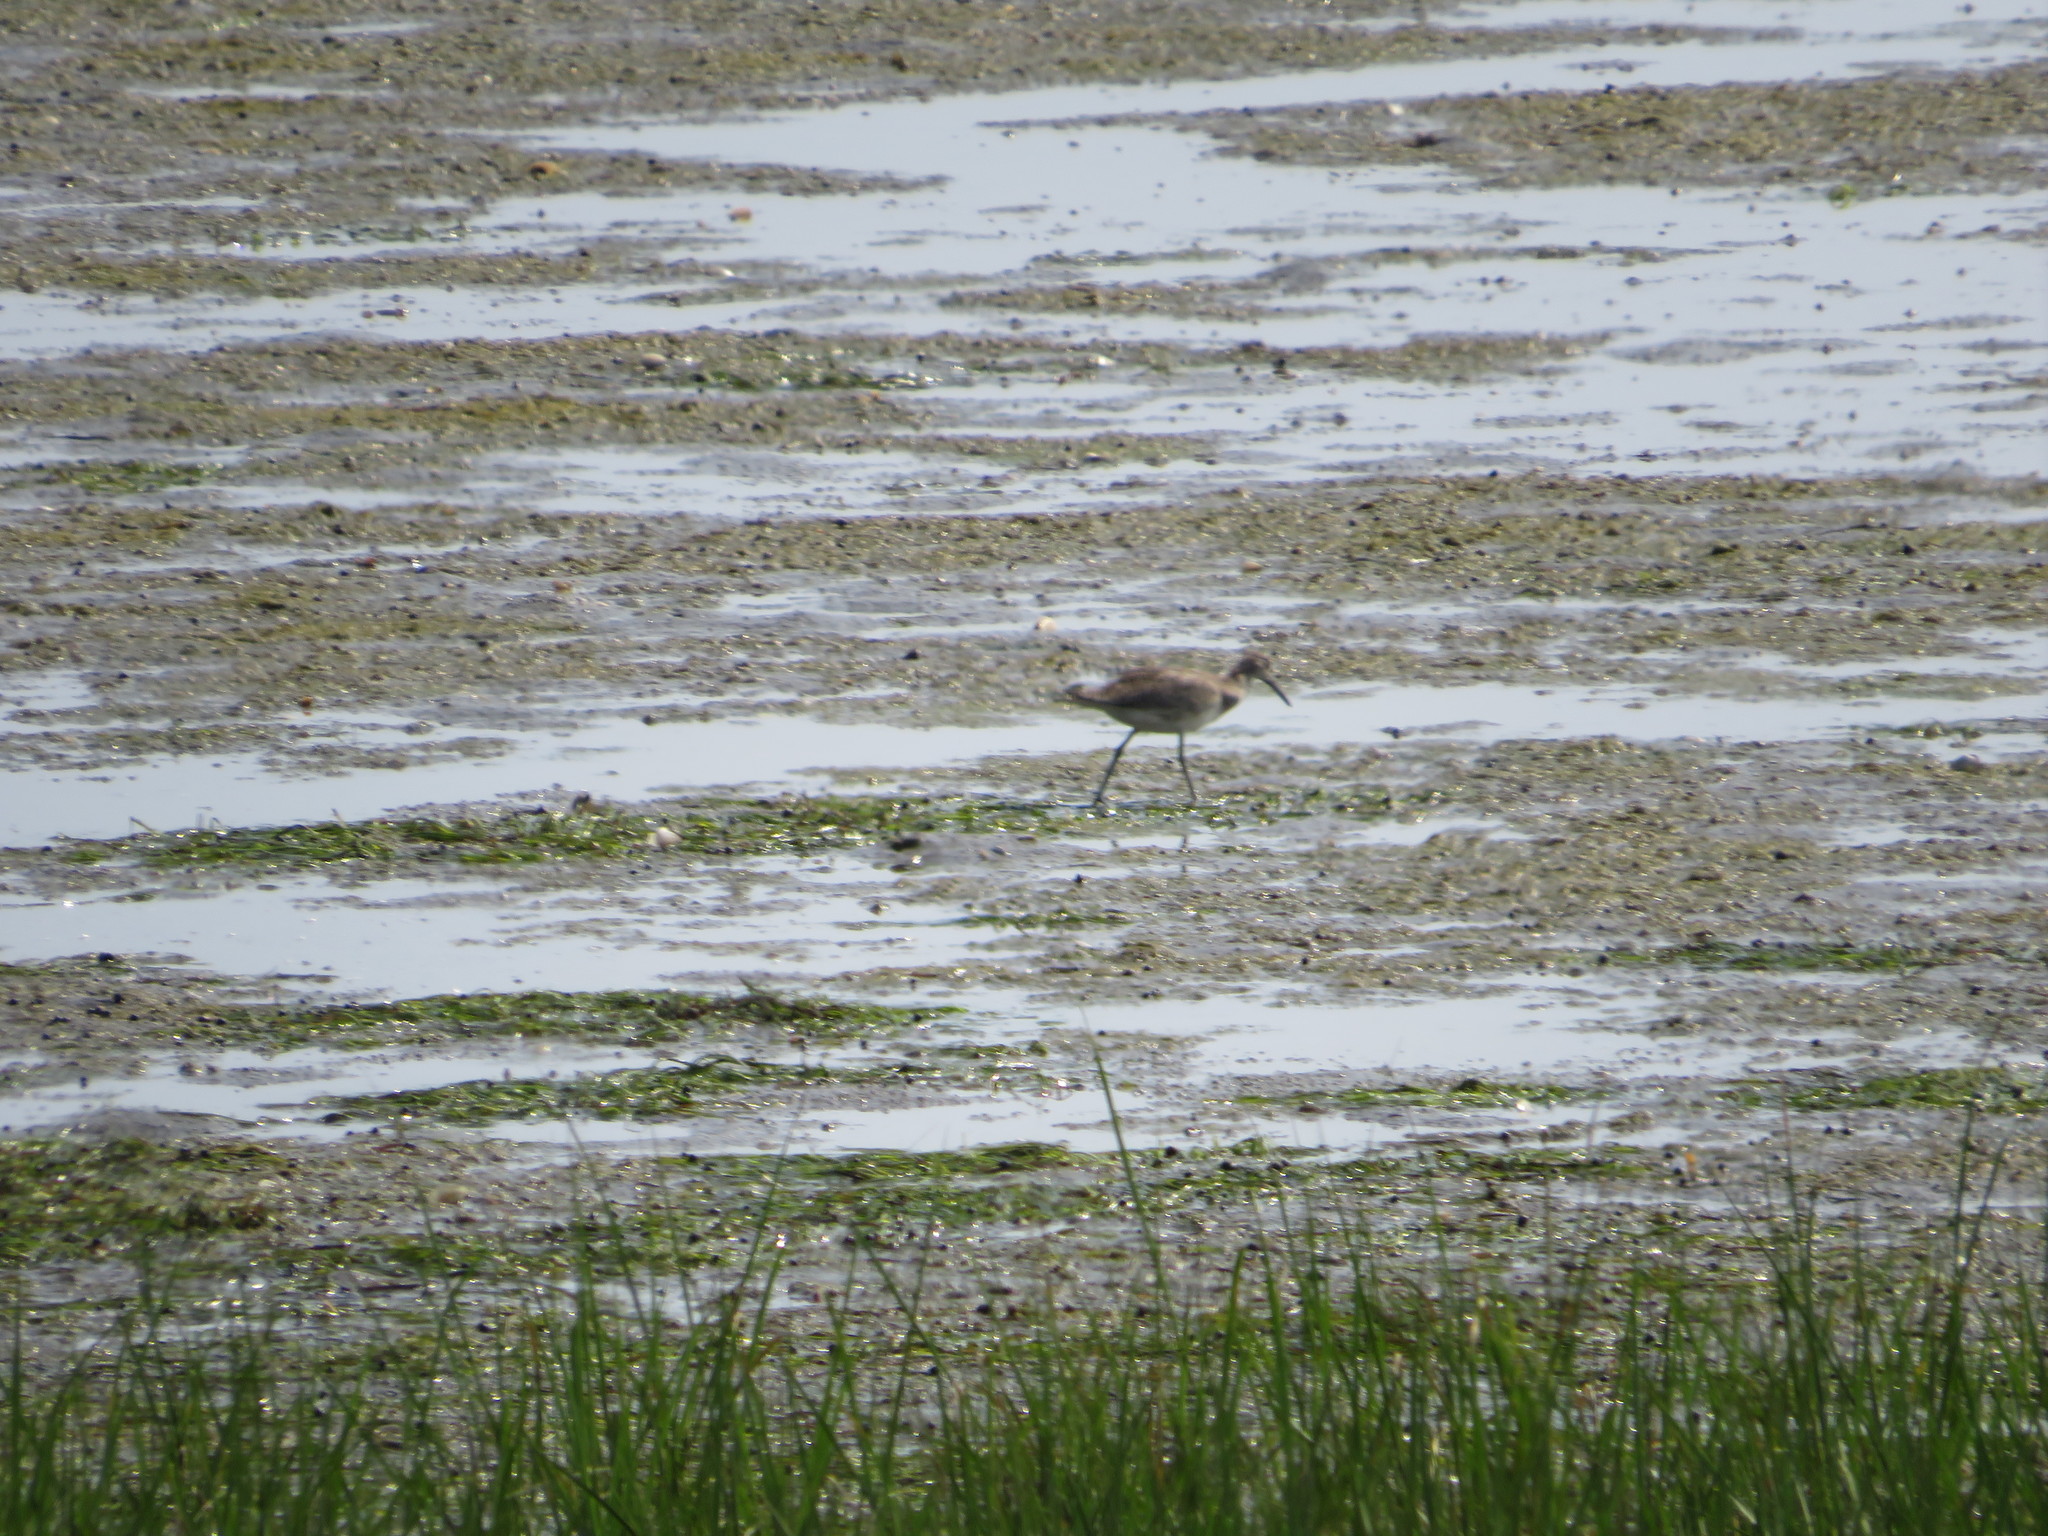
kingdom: Animalia
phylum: Chordata
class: Aves
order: Charadriiformes
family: Scolopacidae
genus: Tringa
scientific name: Tringa semipalmata
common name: Willet
